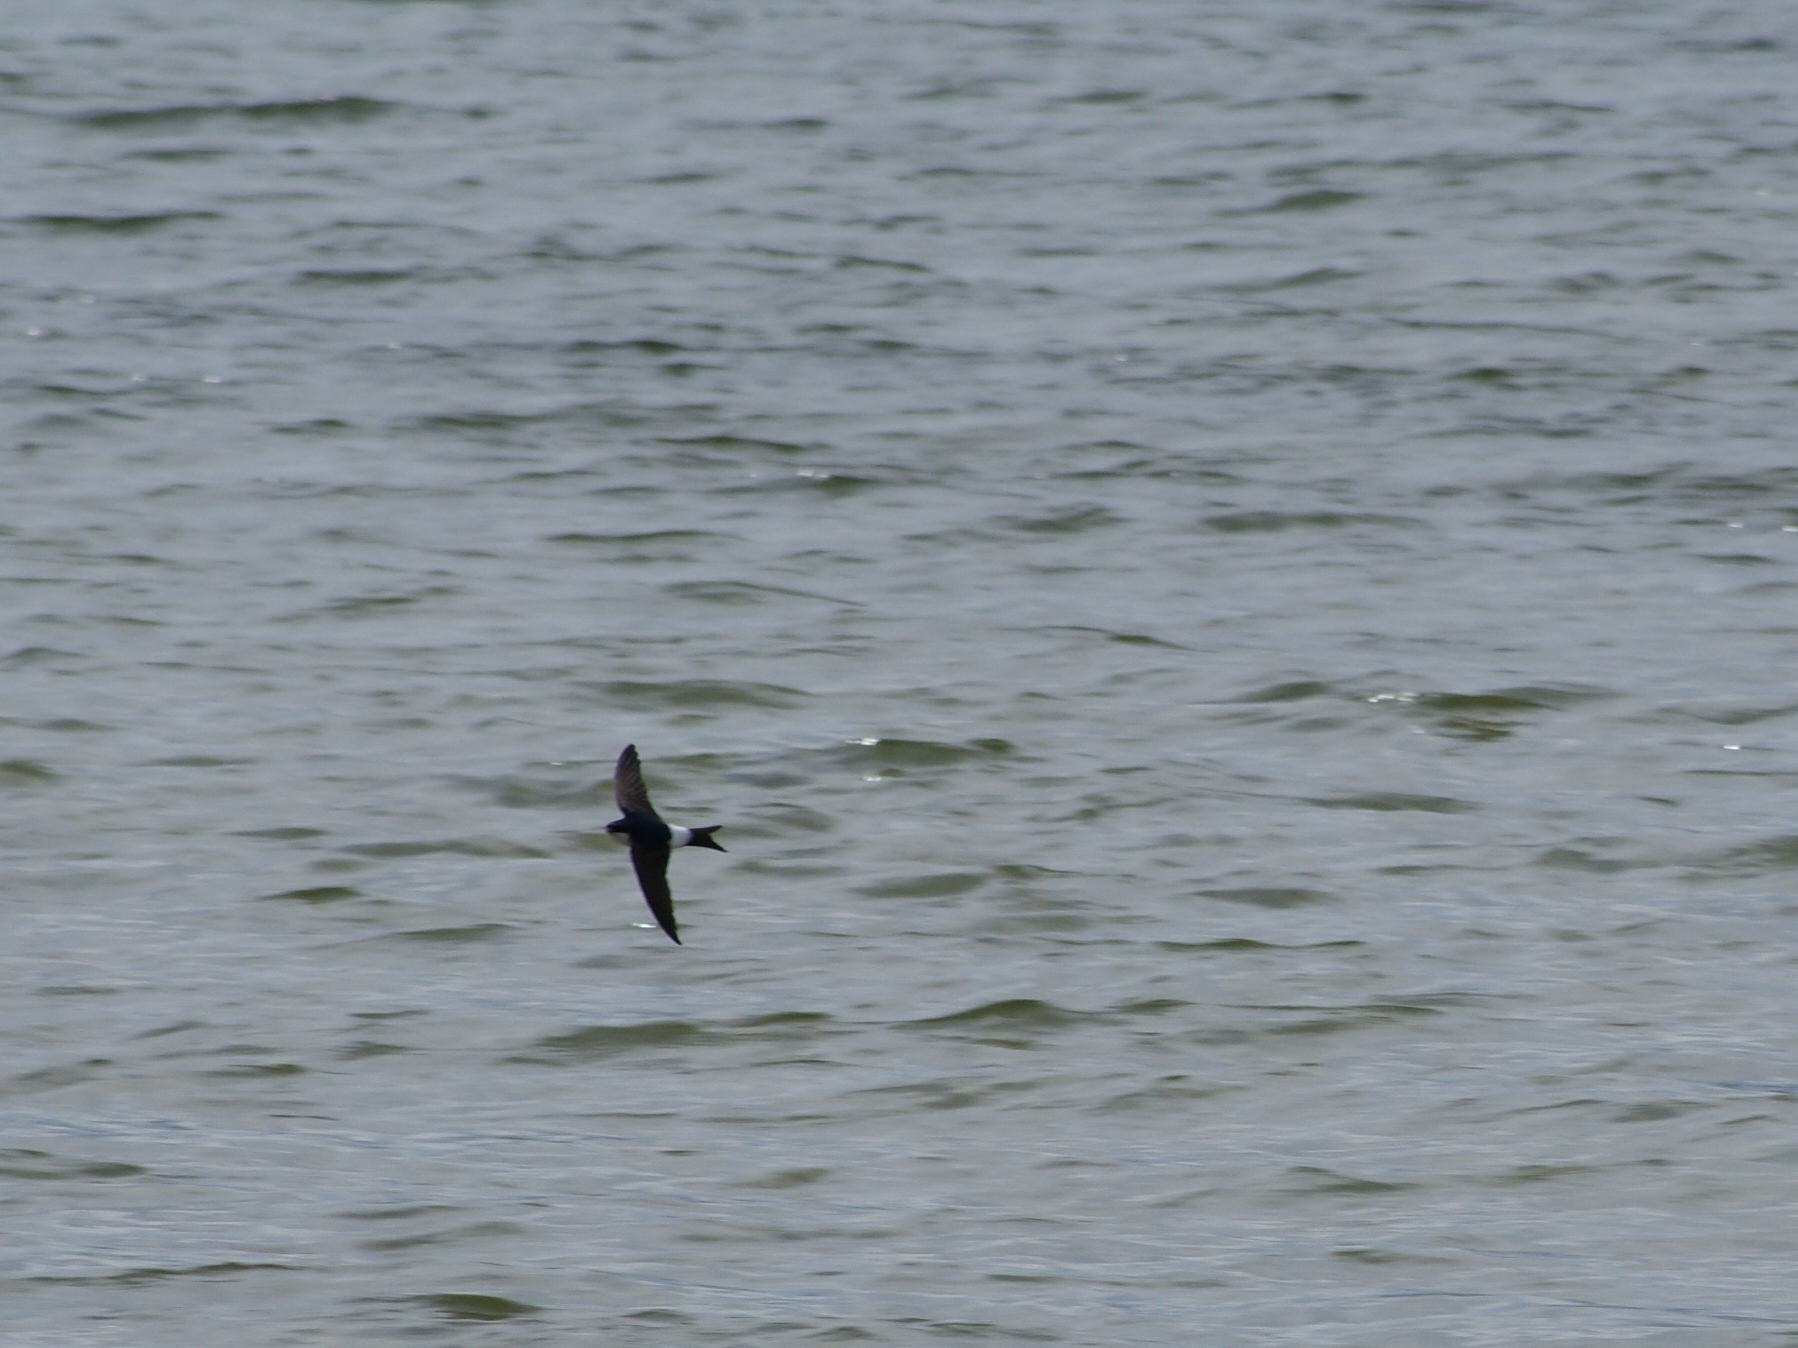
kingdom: Animalia
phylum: Chordata
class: Aves
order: Passeriformes
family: Hirundinidae
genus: Delichon
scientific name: Delichon urbicum
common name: Common house martin
